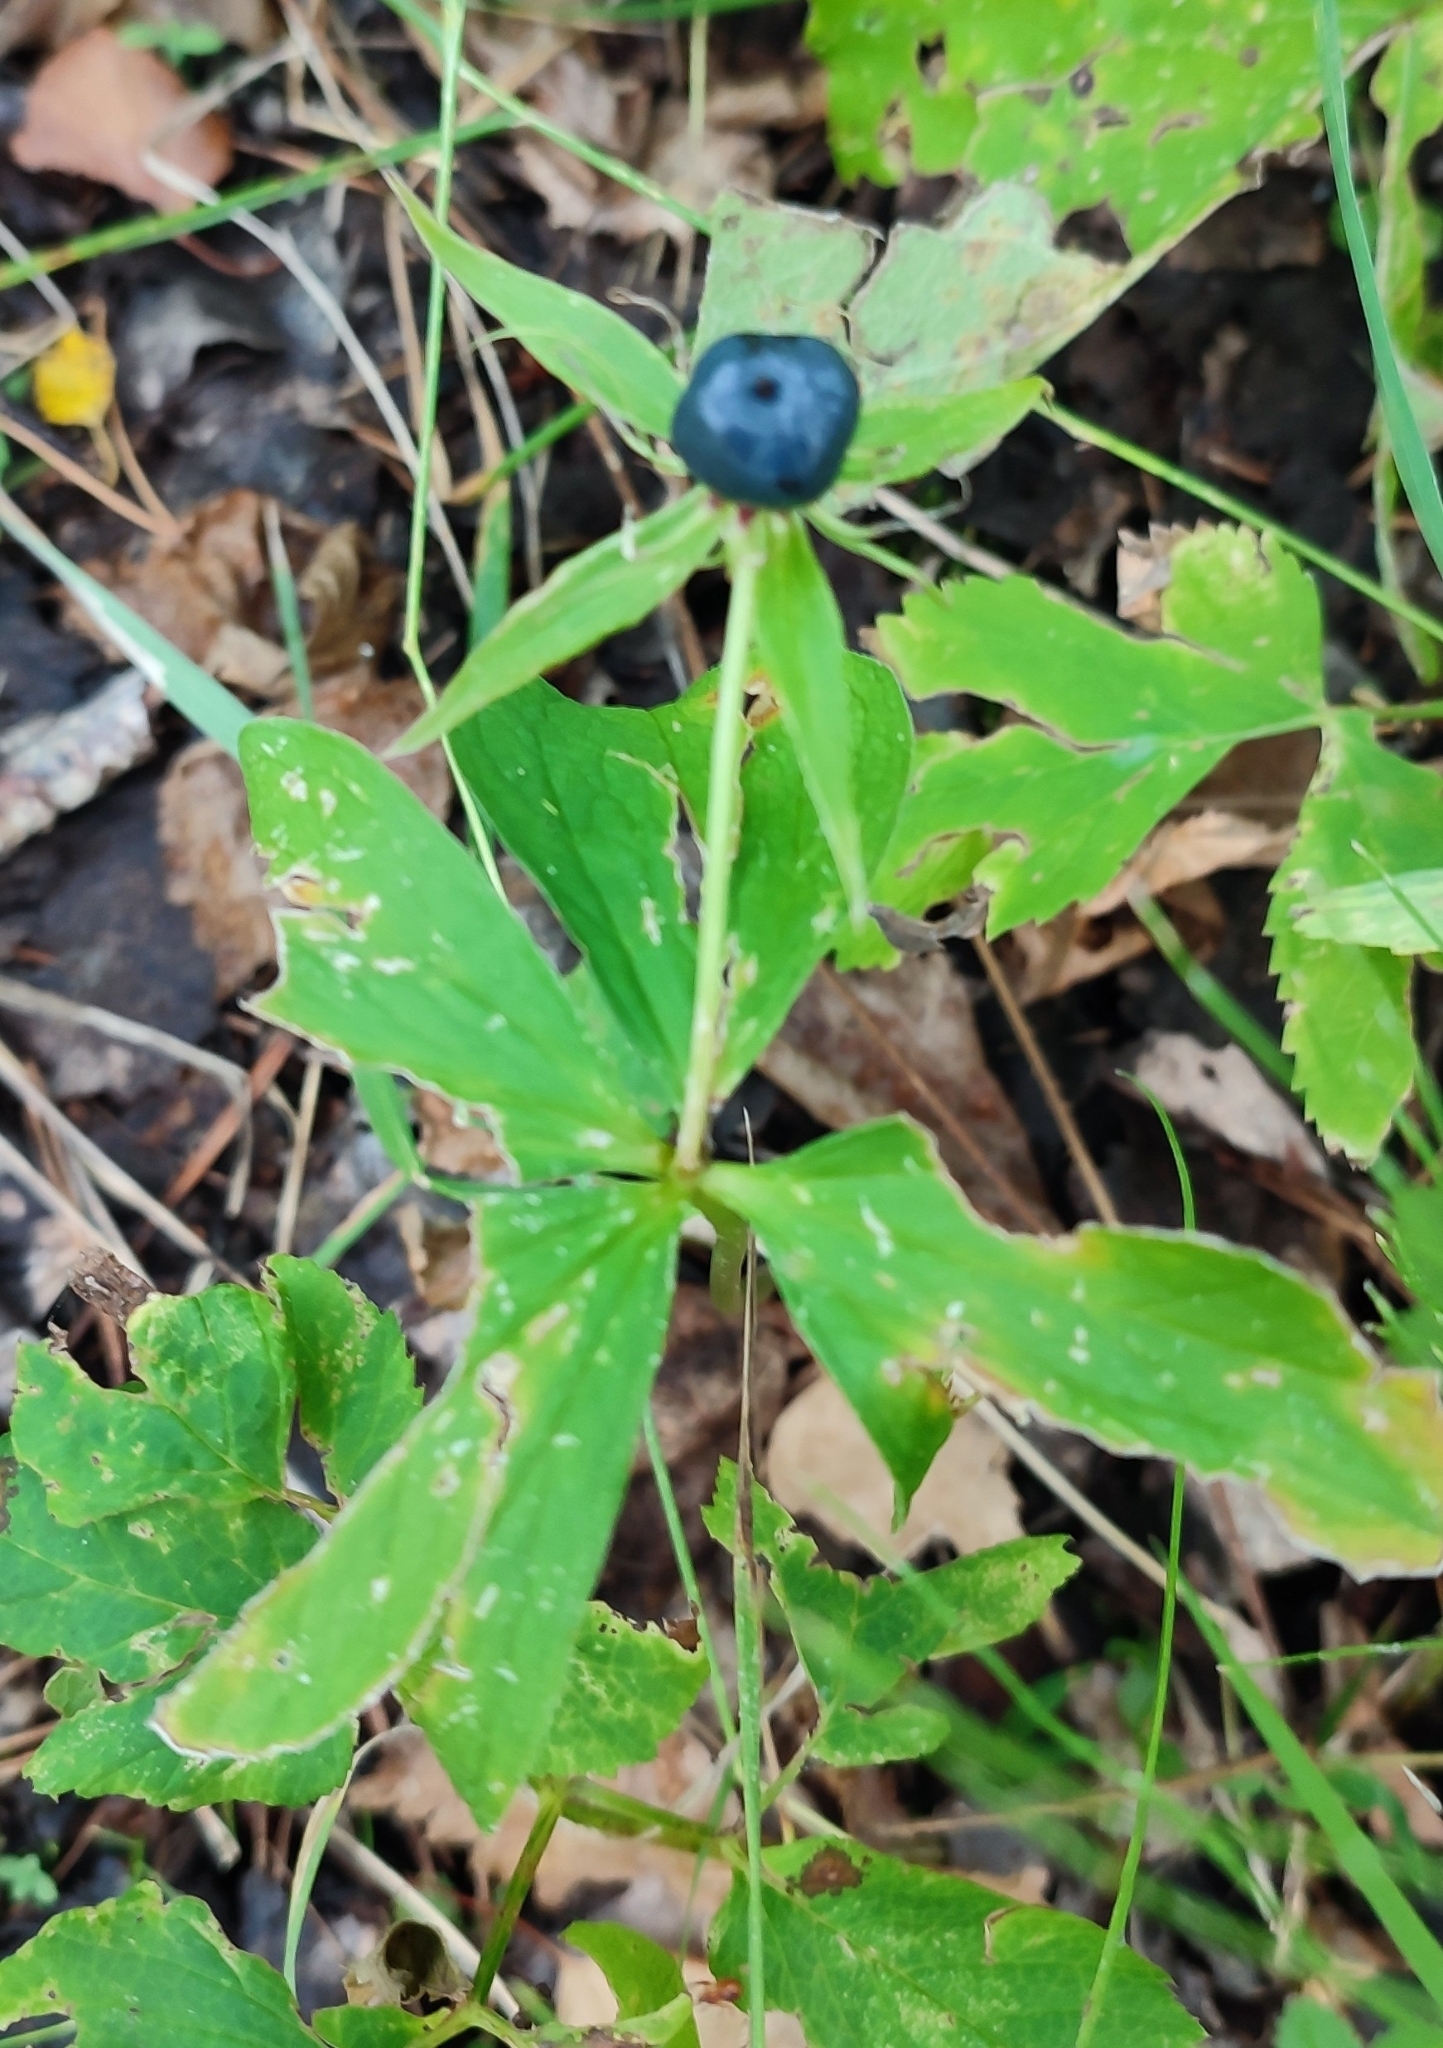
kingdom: Plantae
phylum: Tracheophyta
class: Liliopsida
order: Liliales
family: Melanthiaceae
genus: Paris
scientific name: Paris quadrifolia
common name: Herb-paris
